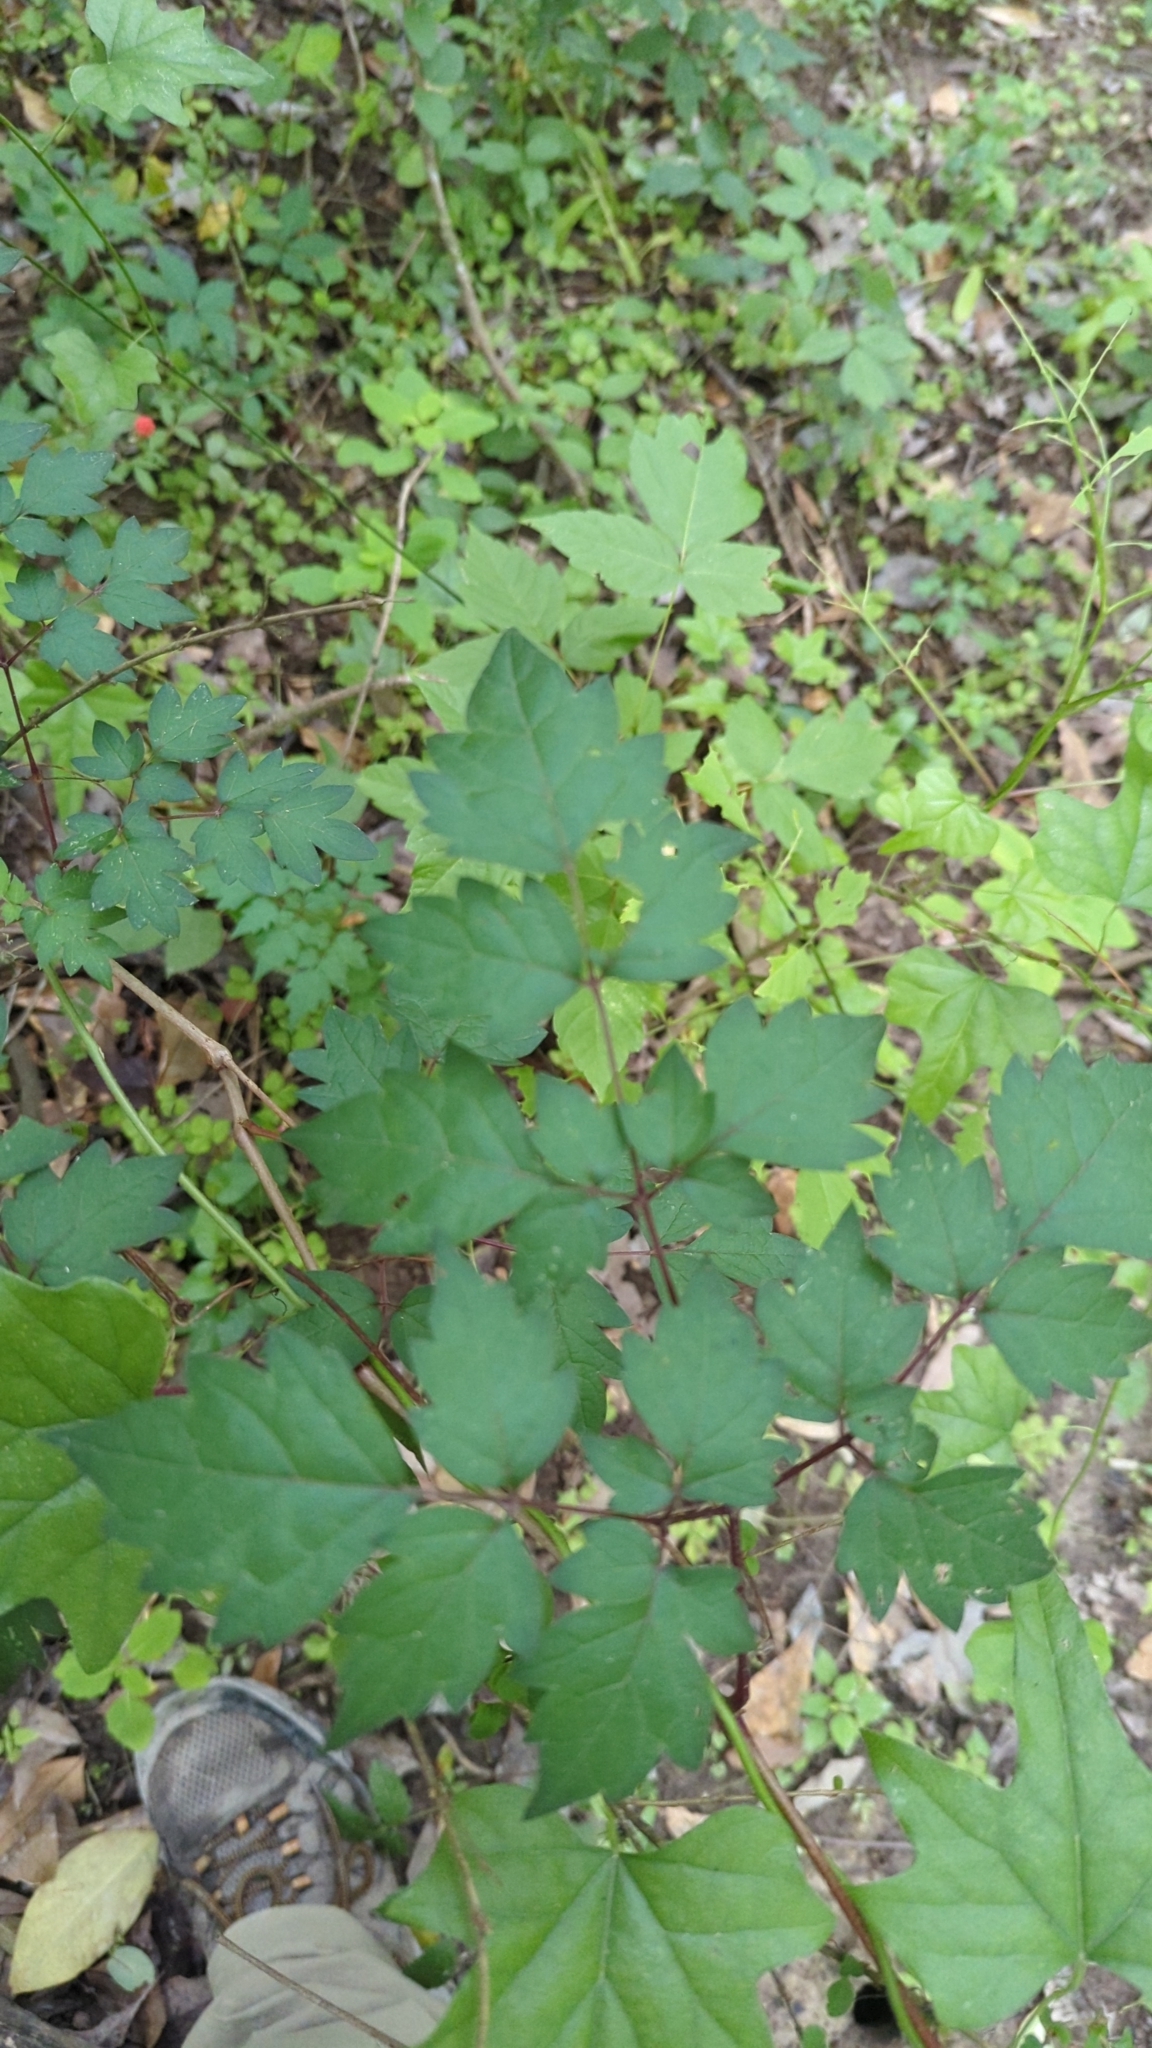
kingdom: Plantae
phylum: Tracheophyta
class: Magnoliopsida
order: Vitales
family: Vitaceae
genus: Nekemias
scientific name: Nekemias arborea
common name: Peppervine
